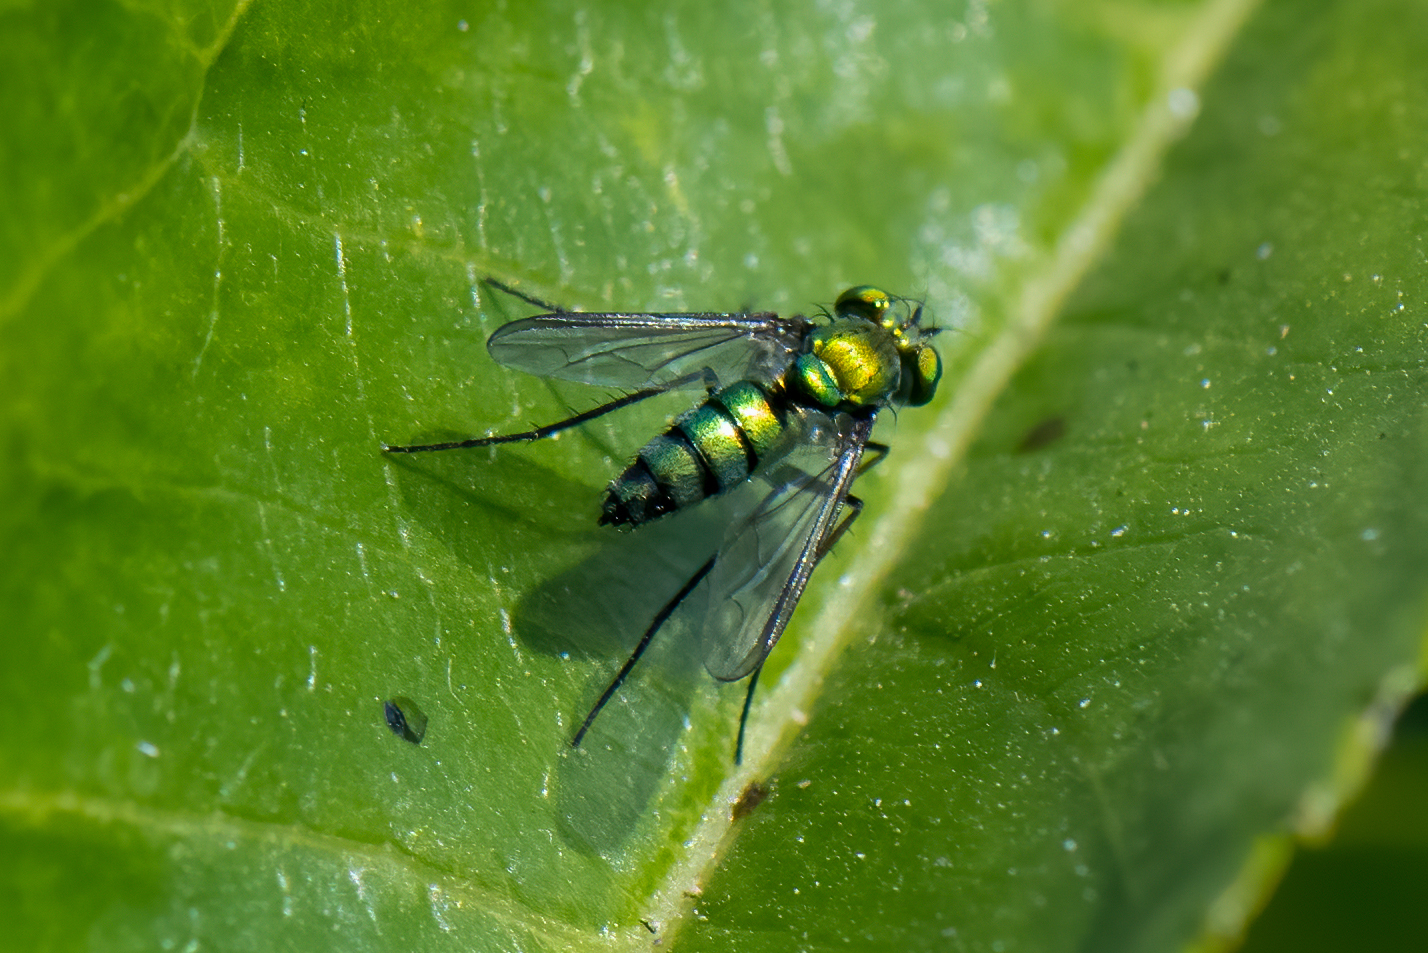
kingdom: Animalia
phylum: Arthropoda
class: Insecta
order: Diptera
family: Dolichopodidae
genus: Condylostylus
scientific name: Condylostylus longicornis
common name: Long-legged fly
